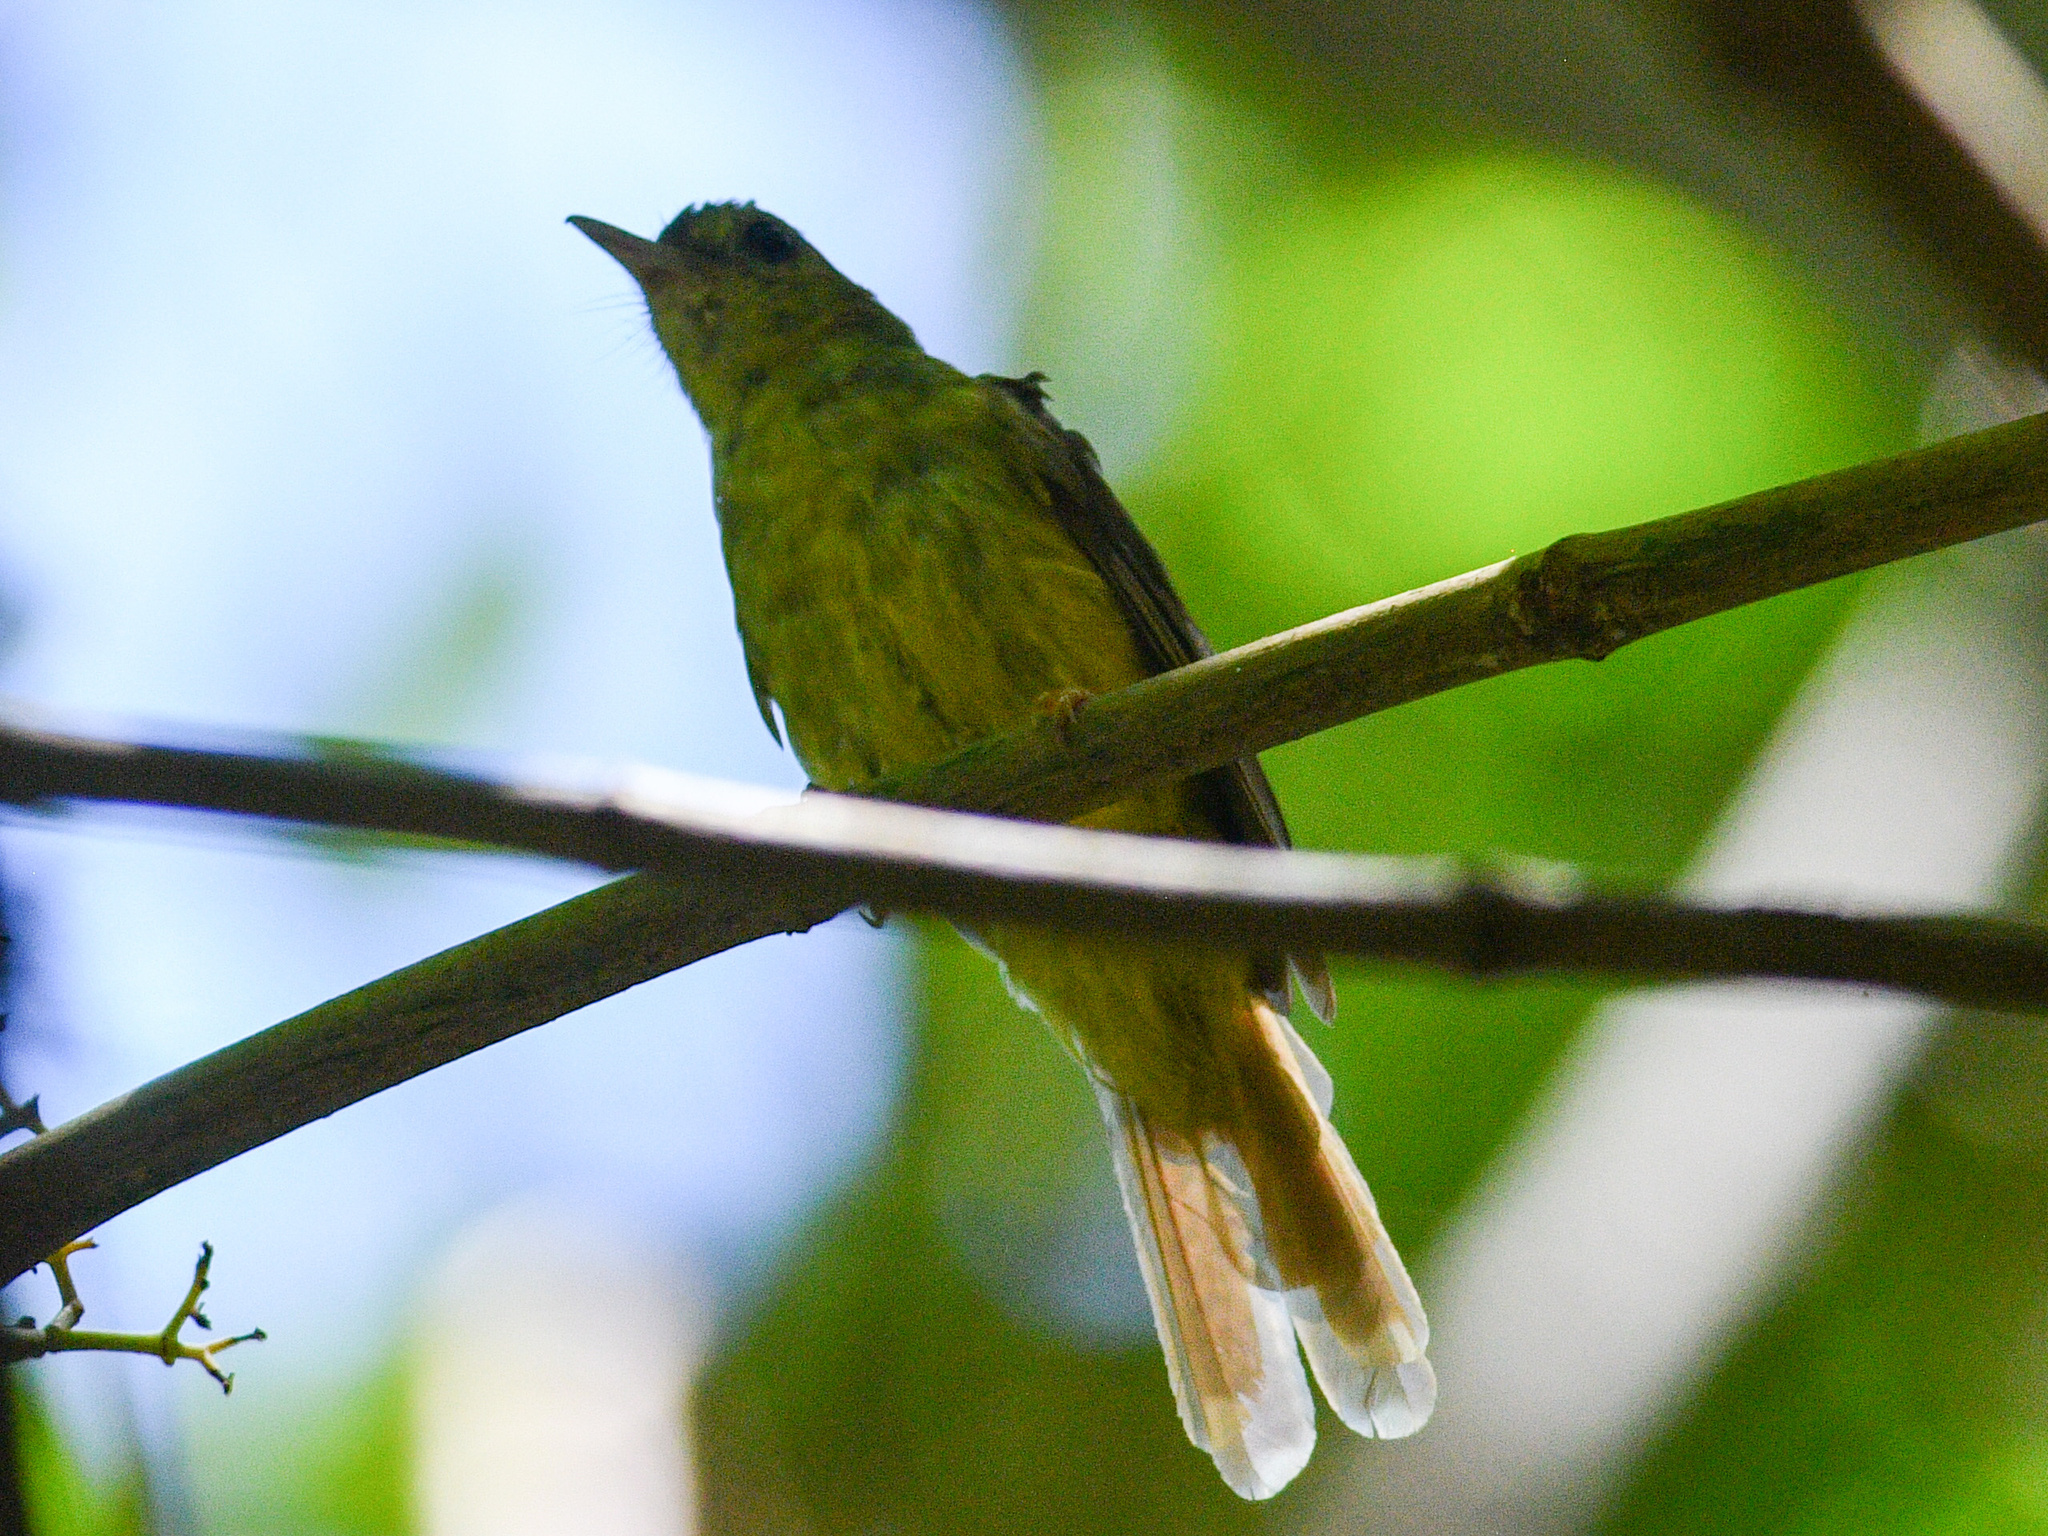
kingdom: Animalia
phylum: Chordata
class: Aves
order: Passeriformes
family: Pycnonotidae
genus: Tricholestes
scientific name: Tricholestes criniger
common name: Hairy-backed bulbul
